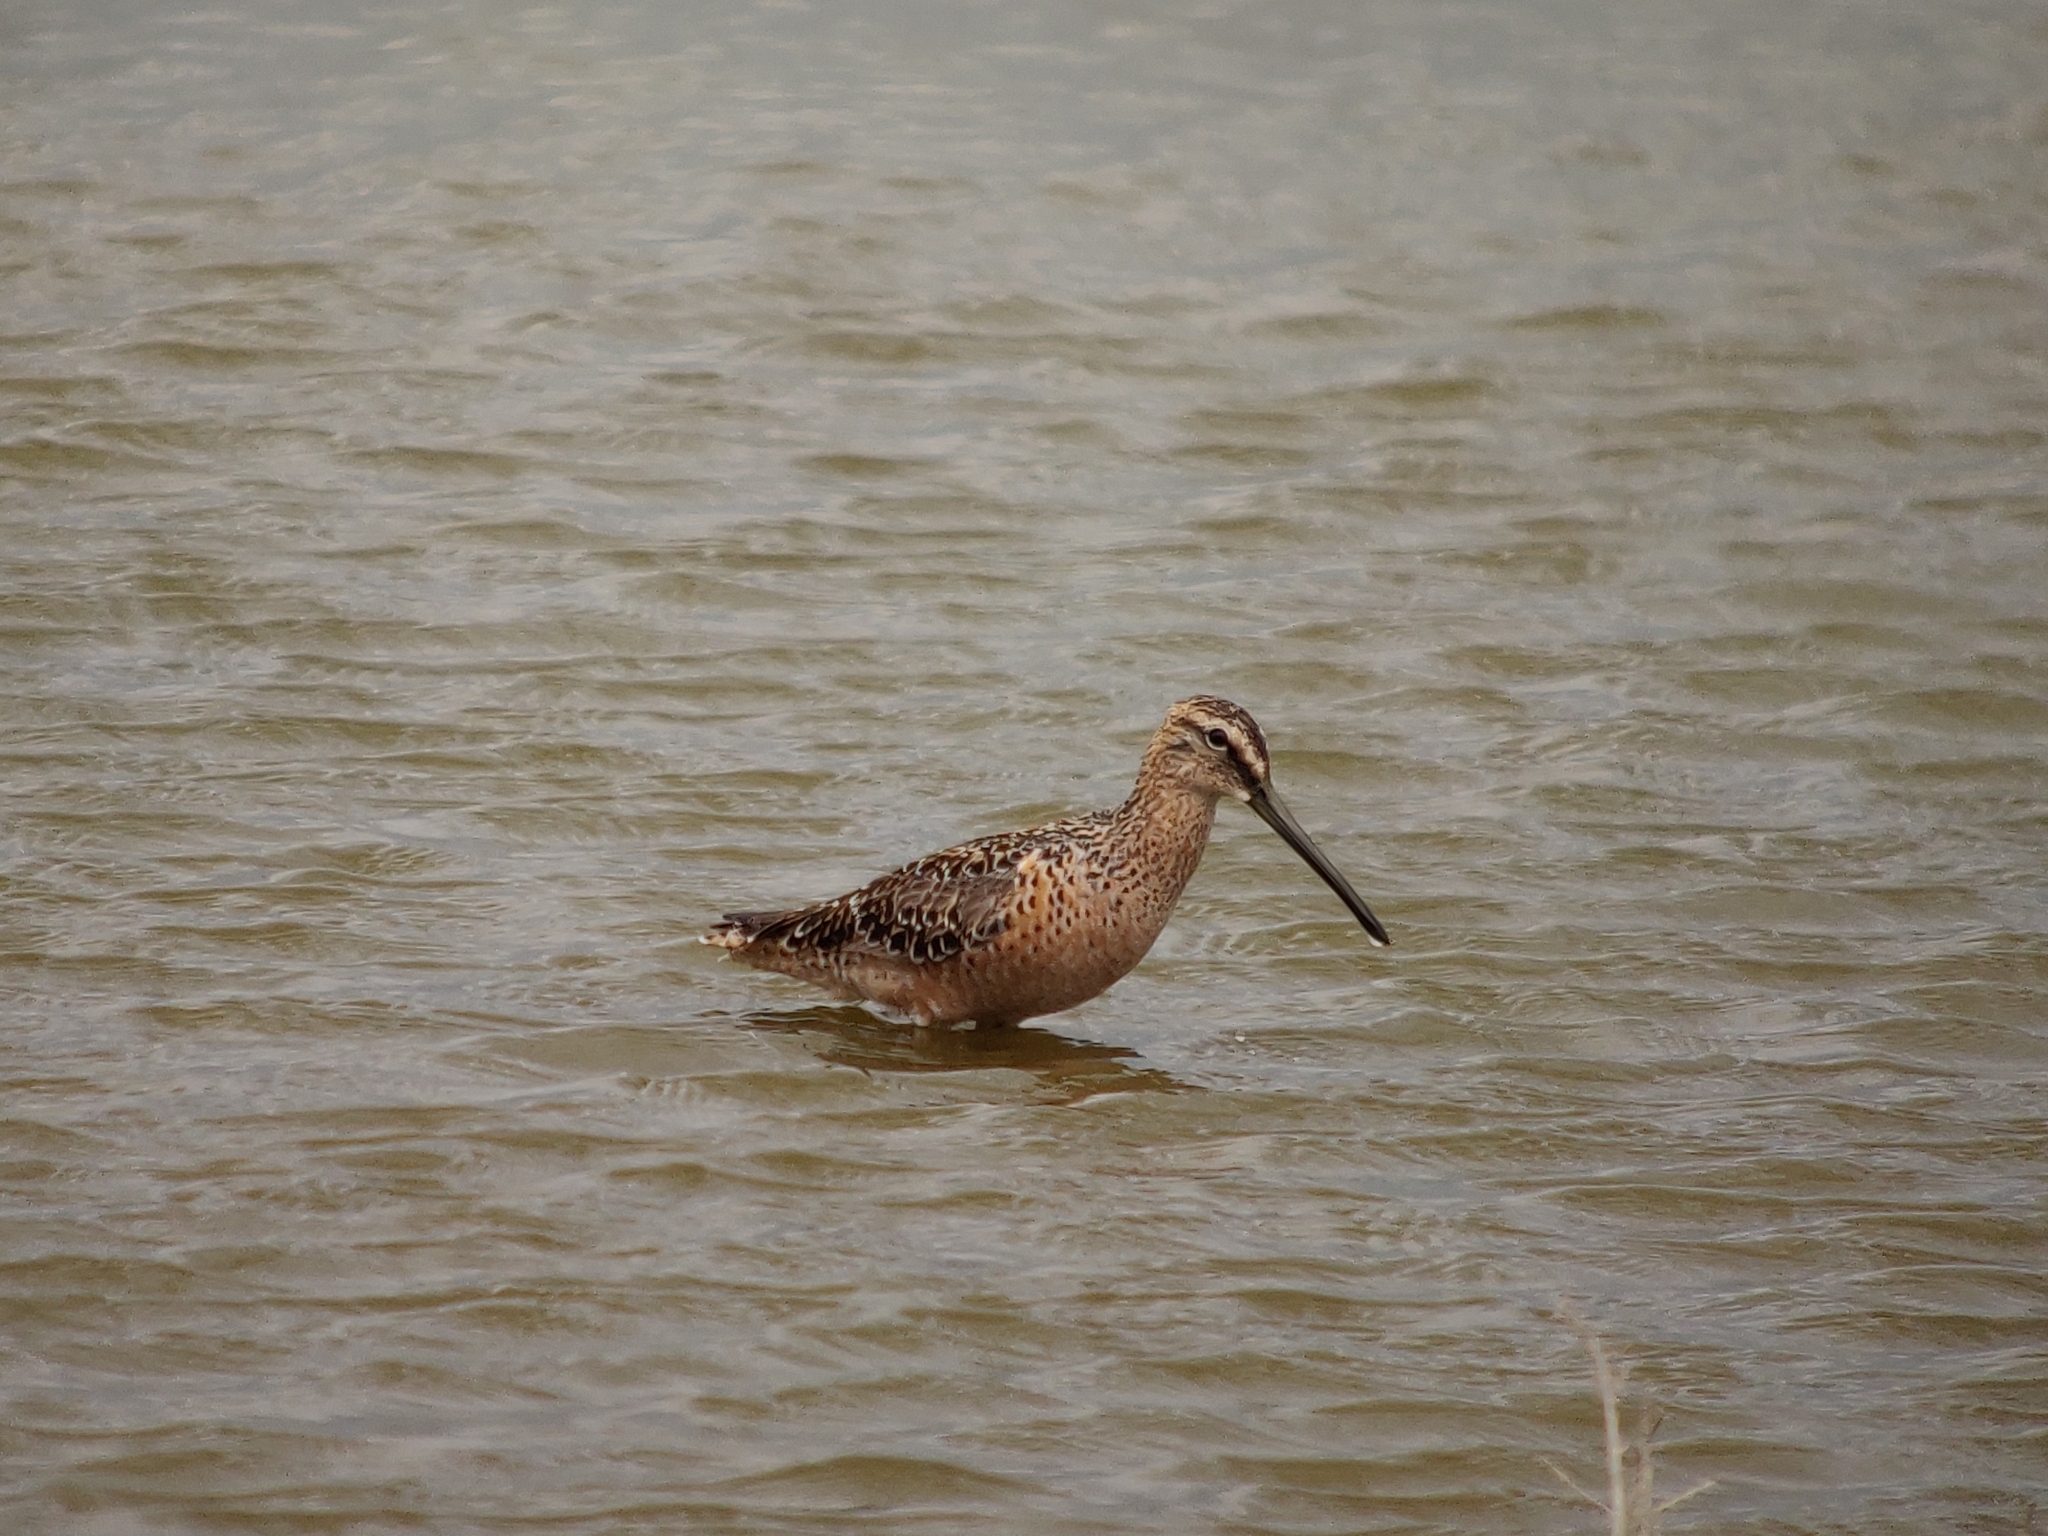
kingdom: Animalia
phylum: Chordata
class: Aves
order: Charadriiformes
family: Scolopacidae
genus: Limnodromus
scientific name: Limnodromus scolopaceus
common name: Long-billed dowitcher
